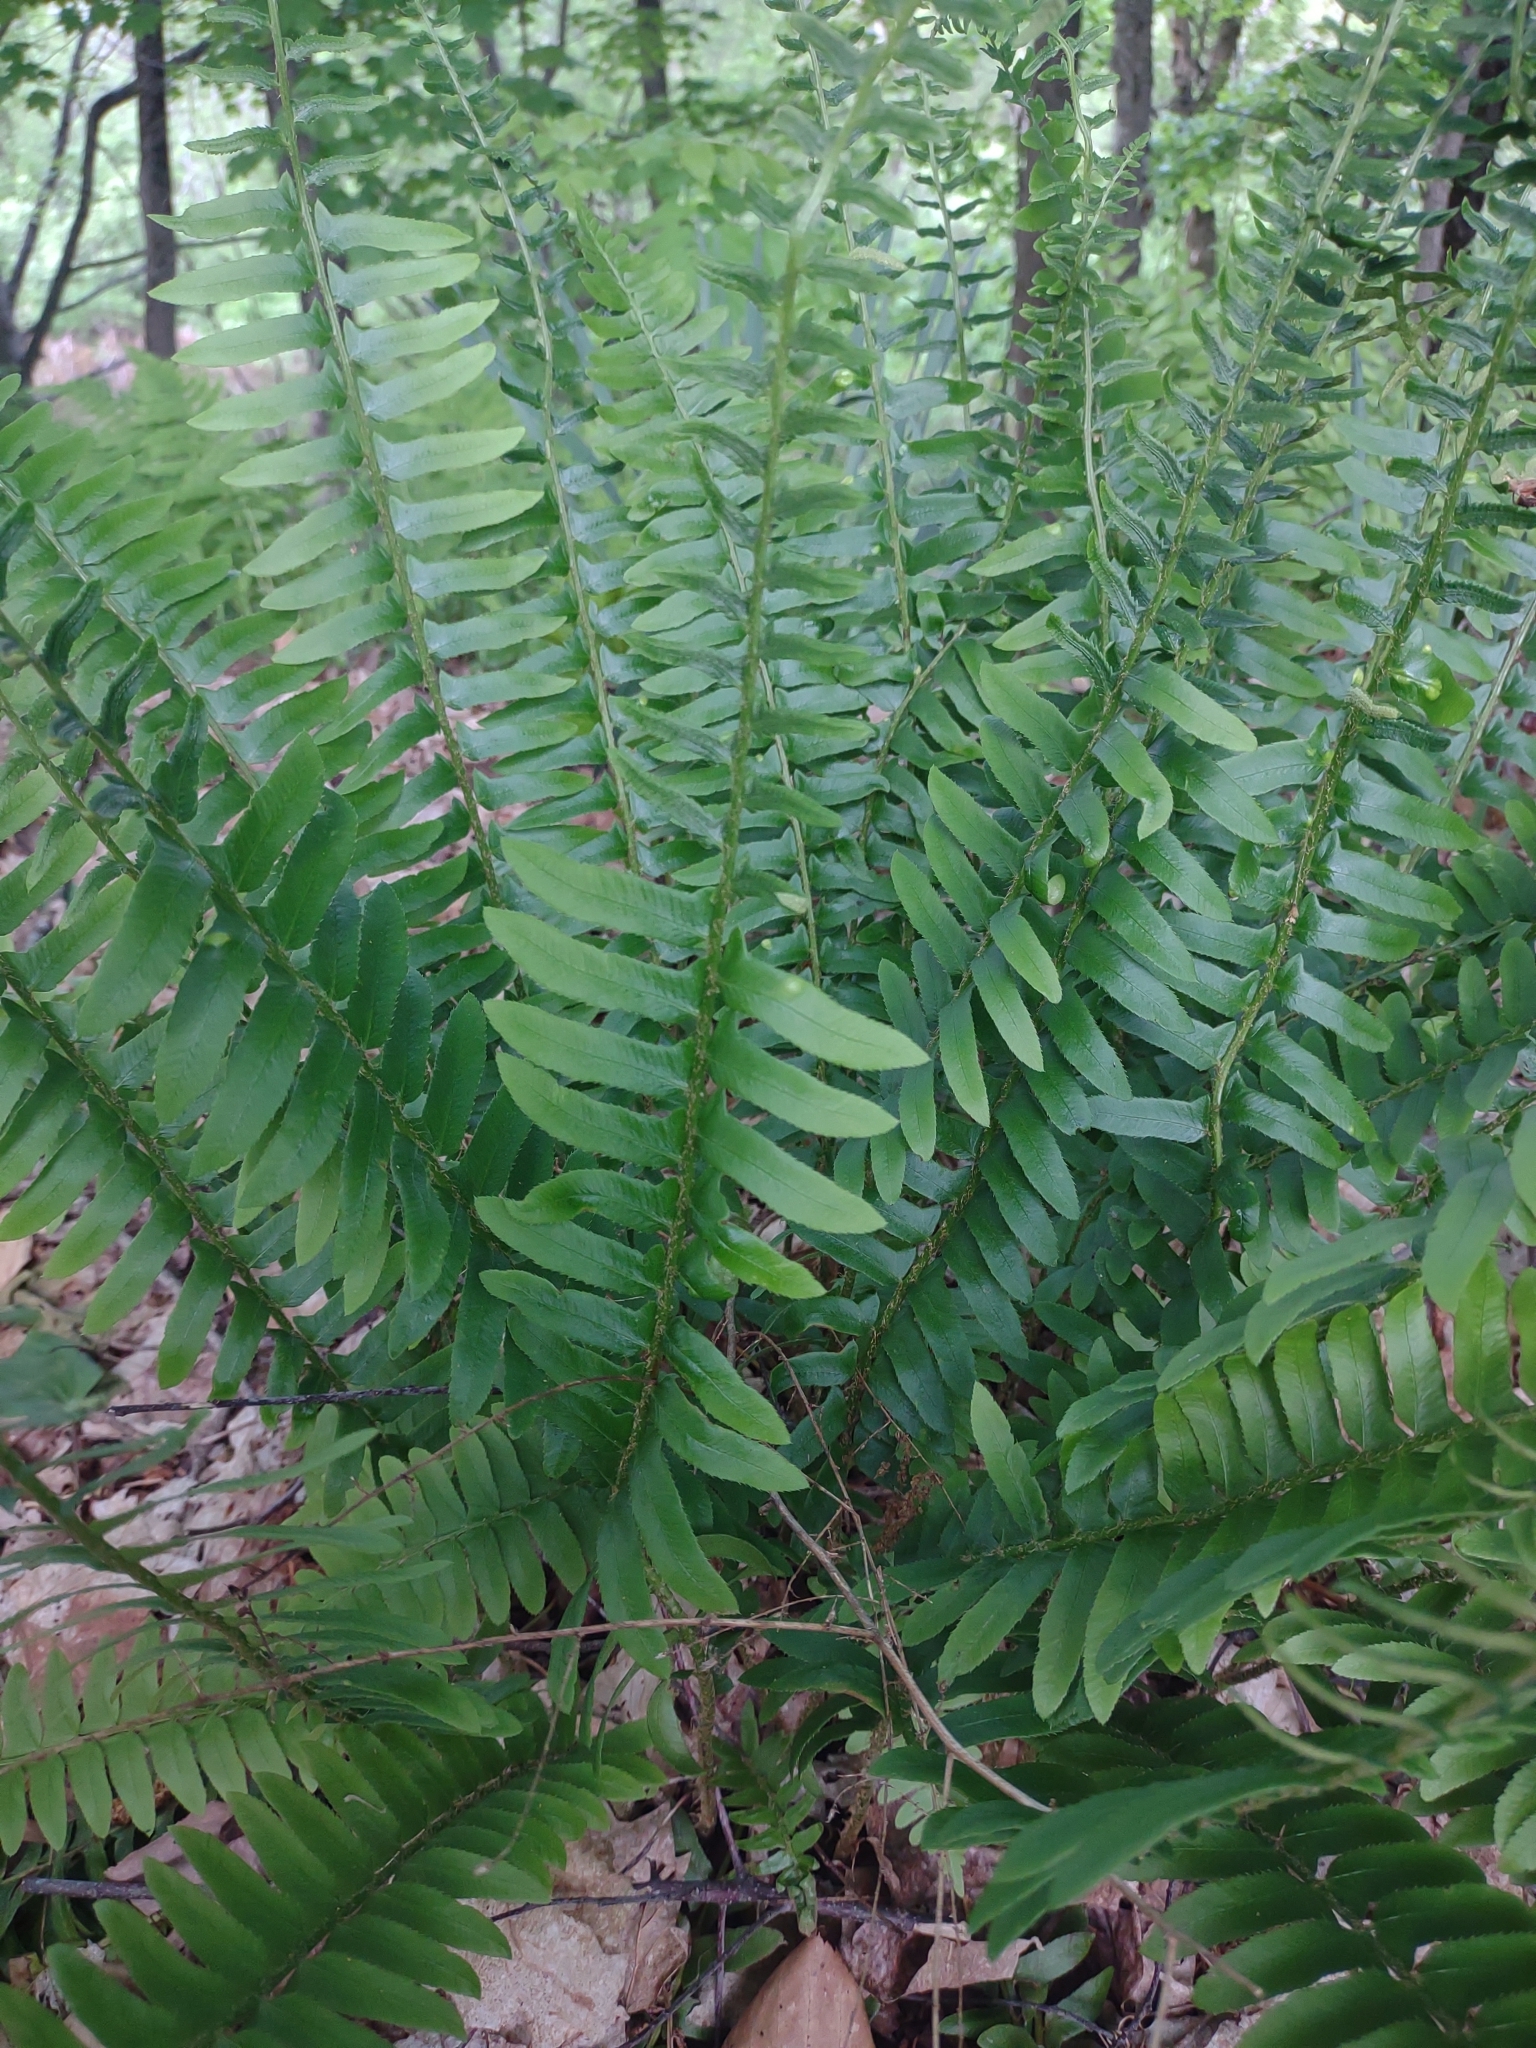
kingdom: Plantae
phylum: Tracheophyta
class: Polypodiopsida
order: Polypodiales
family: Dryopteridaceae
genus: Polystichum
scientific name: Polystichum acrostichoides
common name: Christmas fern
